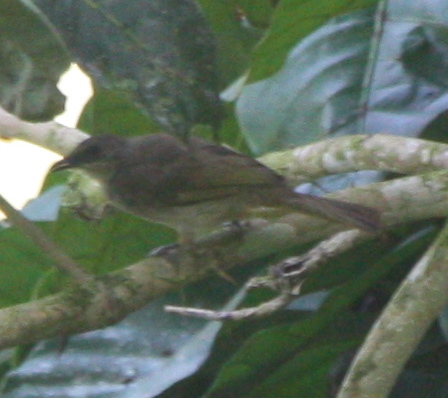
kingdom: Animalia
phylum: Chordata
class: Aves
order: Passeriformes
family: Pycnonotidae
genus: Pycnonotus
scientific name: Pycnonotus plumosus
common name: Olive-winged bulbul
